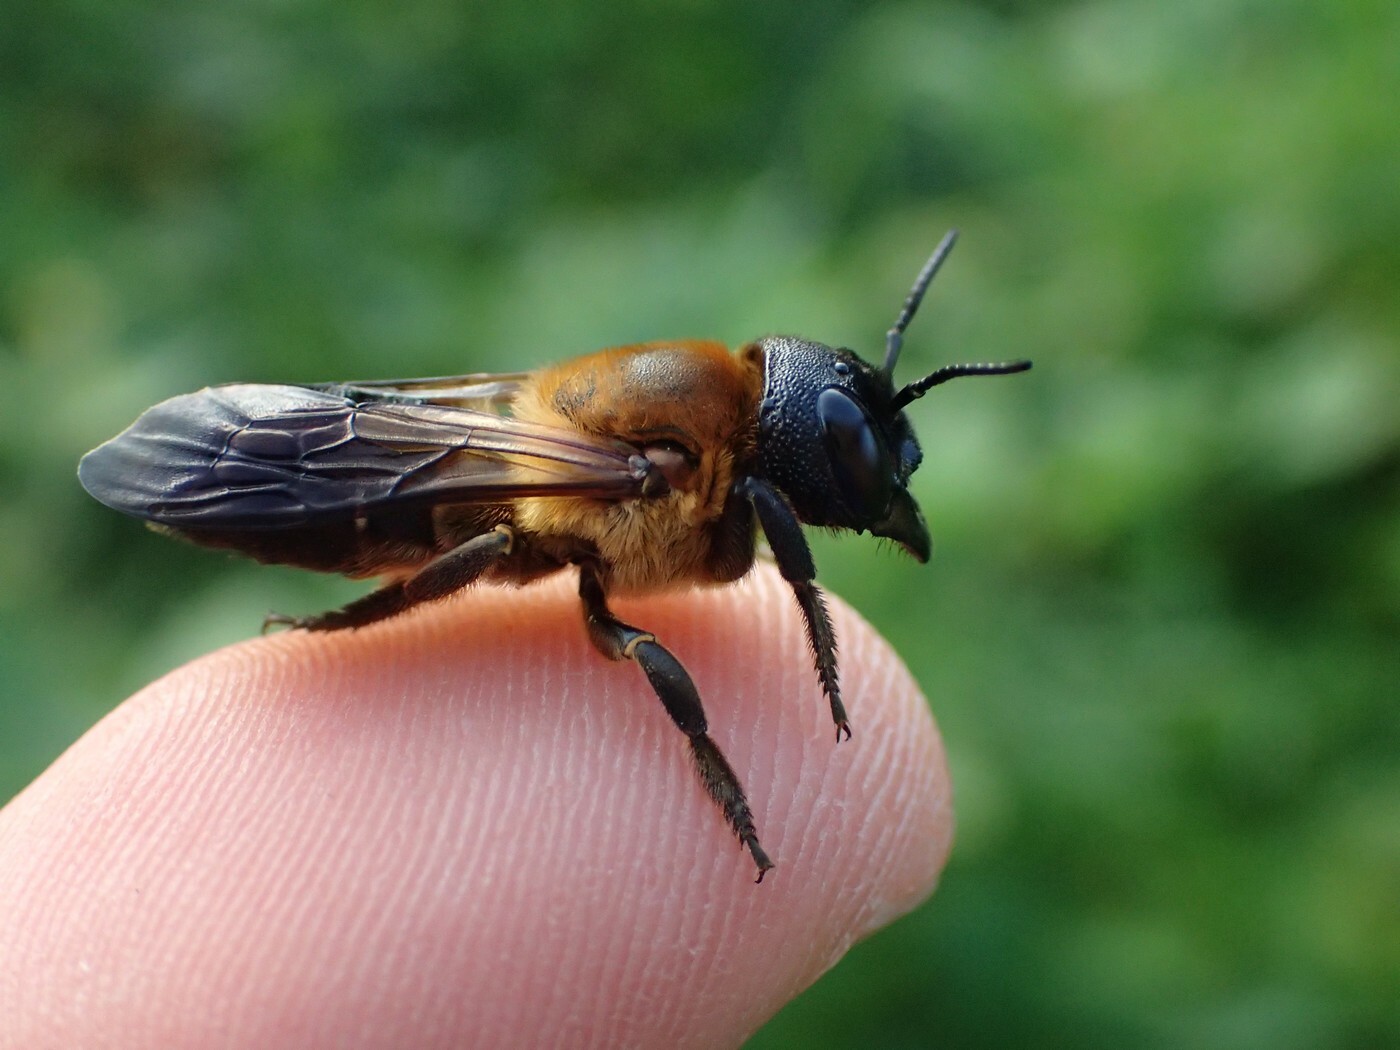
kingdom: Animalia
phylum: Arthropoda
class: Insecta
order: Hymenoptera
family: Megachilidae
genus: Megachile
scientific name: Megachile sculpturalis
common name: Sculptured resin bee
